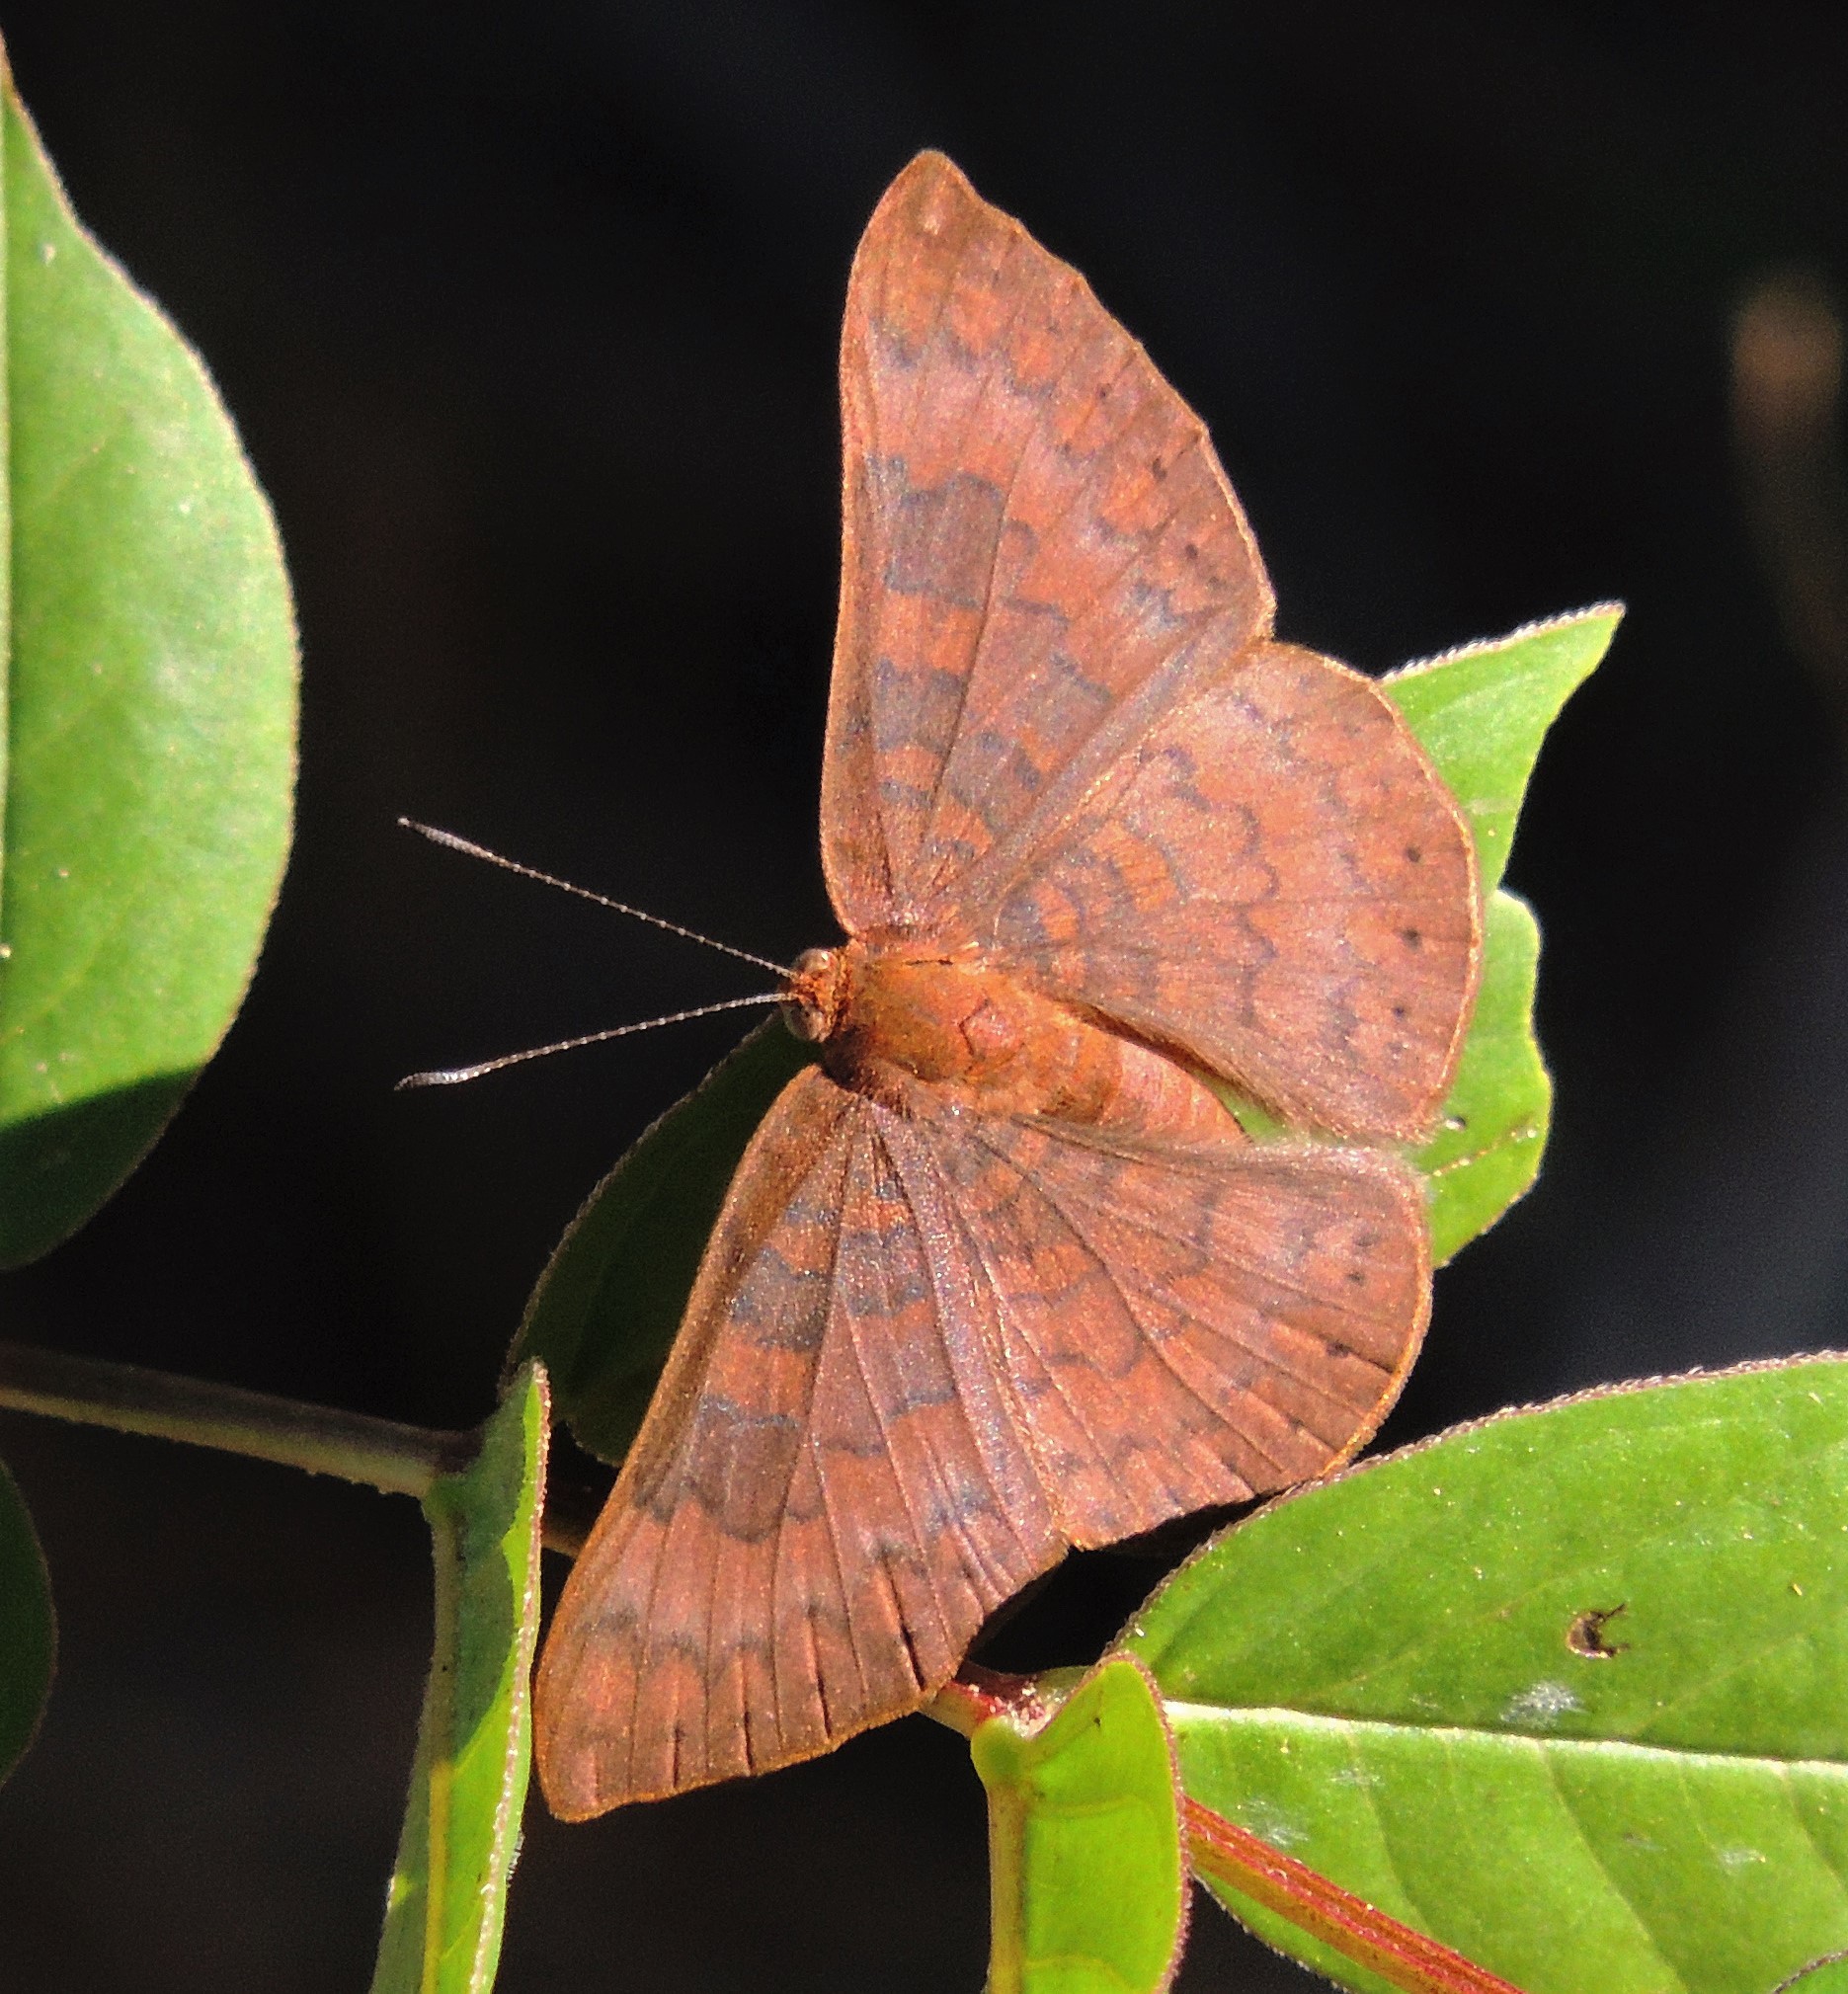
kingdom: Animalia
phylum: Arthropoda
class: Insecta
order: Lepidoptera
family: Lycaenidae
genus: Emesis
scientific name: Emesis mandana
